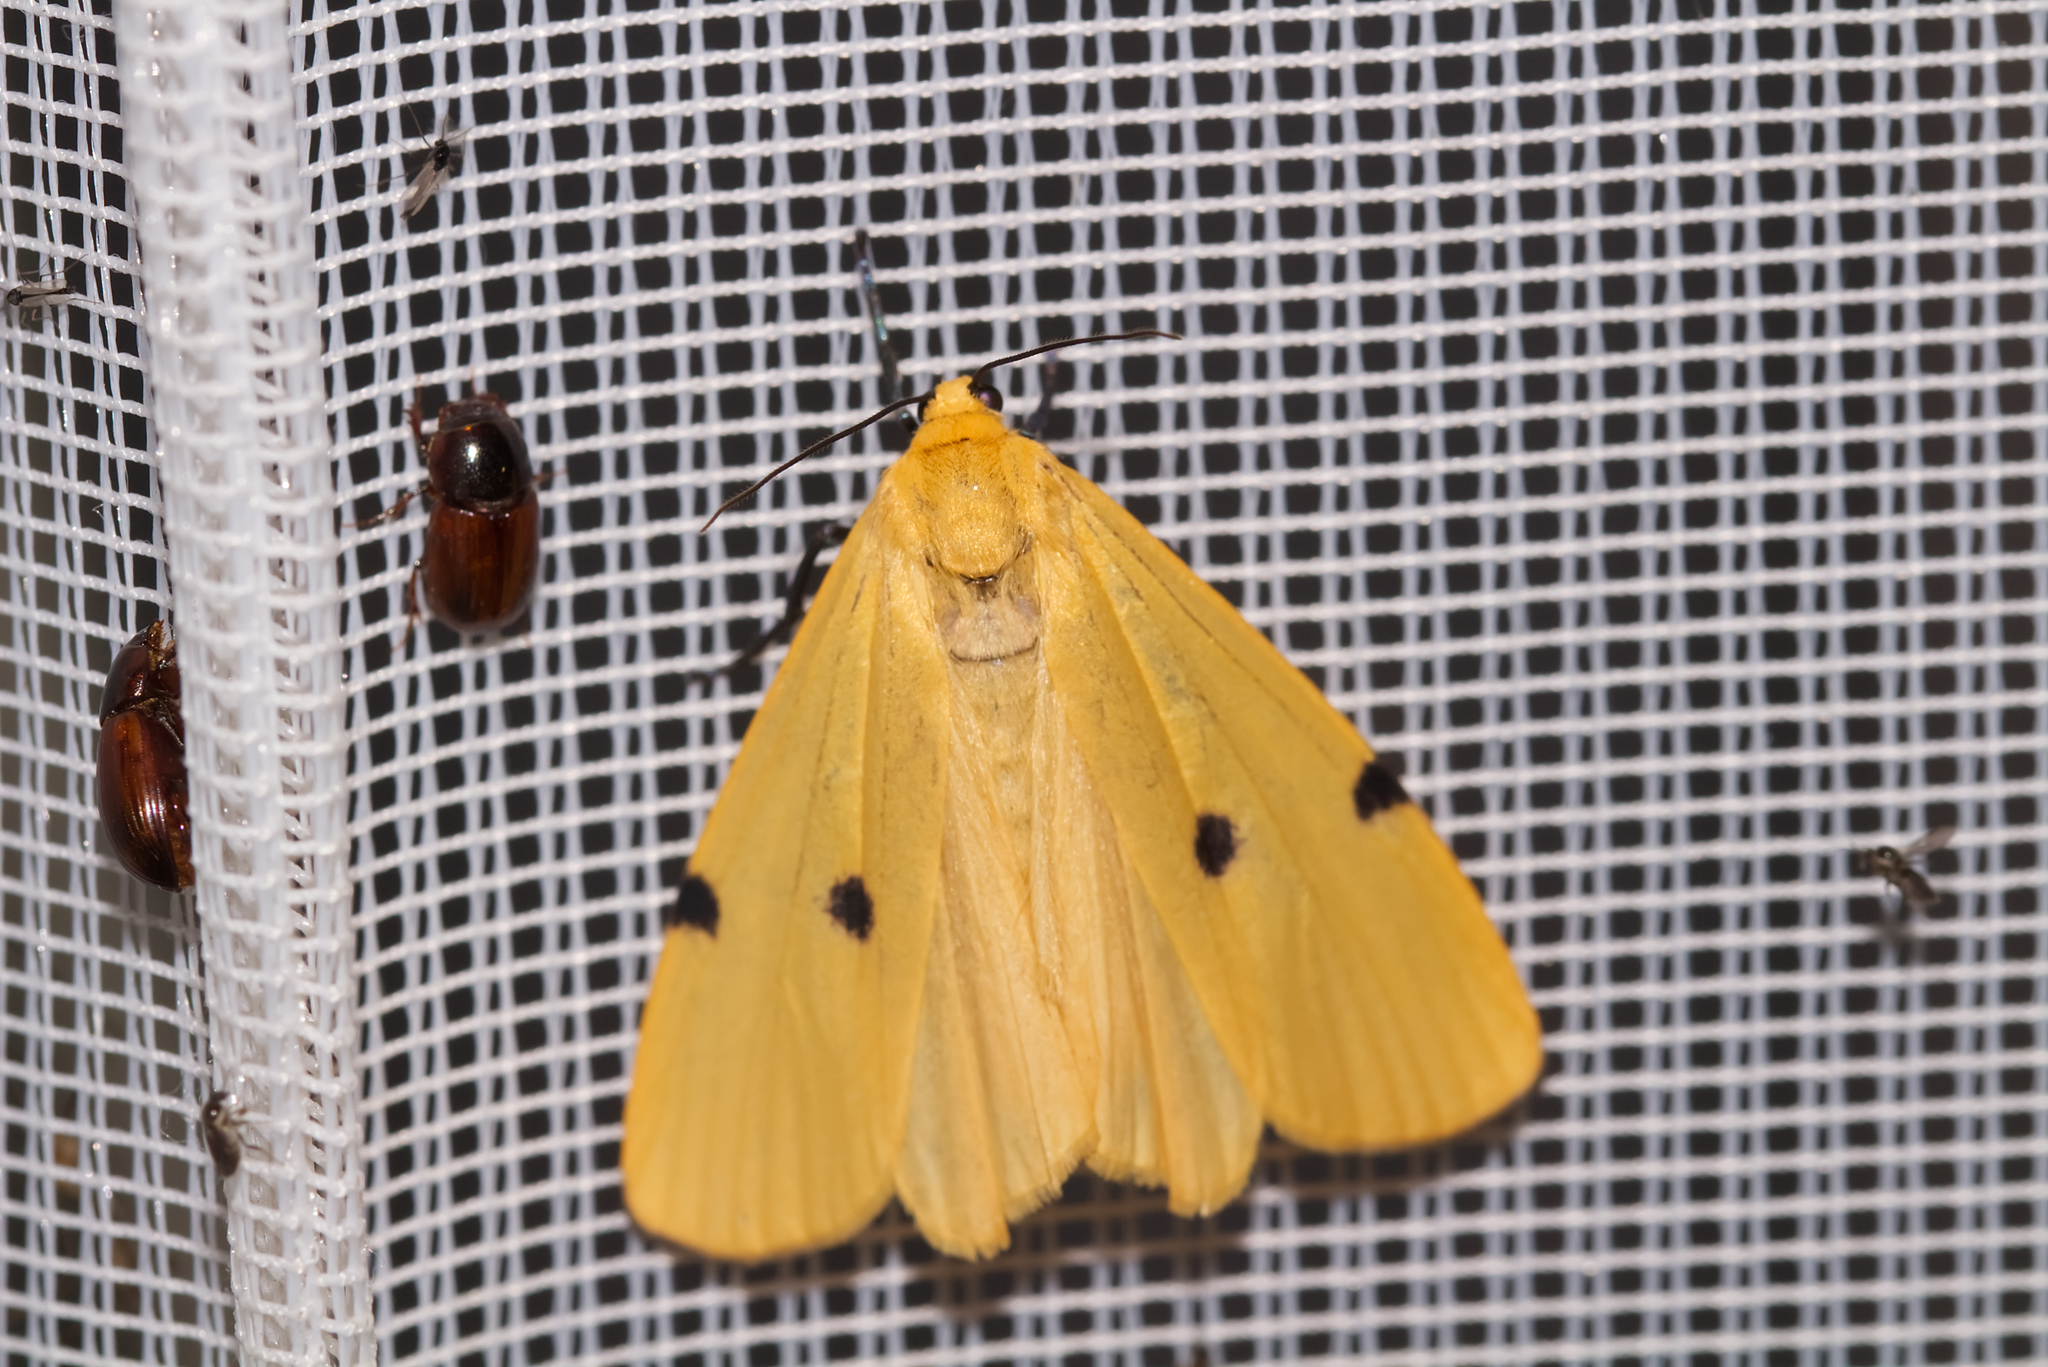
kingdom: Animalia
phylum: Arthropoda
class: Insecta
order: Lepidoptera
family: Erebidae
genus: Lithosia
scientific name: Lithosia quadra
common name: Four-spotted footman
